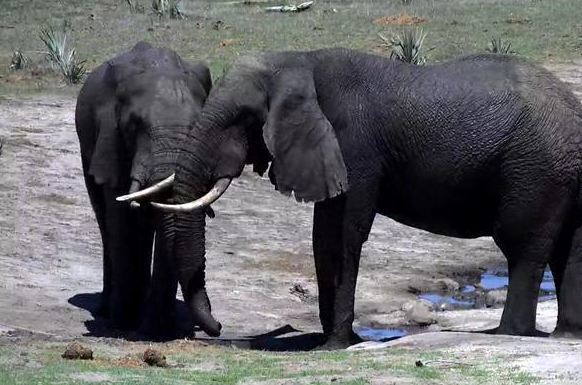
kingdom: Animalia
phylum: Chordata
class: Mammalia
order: Proboscidea
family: Elephantidae
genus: Loxodonta
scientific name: Loxodonta africana
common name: African elephant
